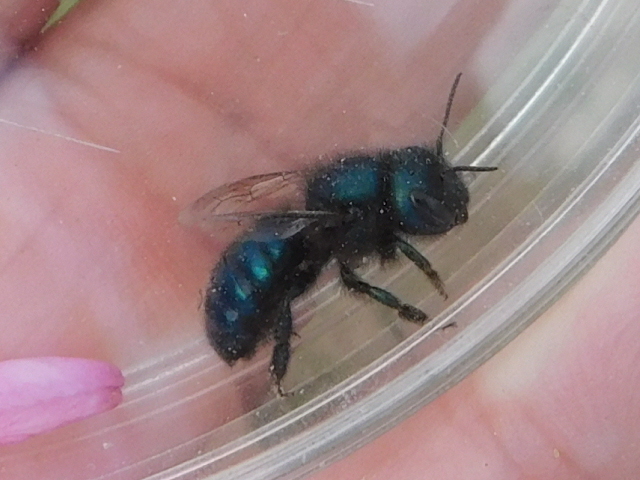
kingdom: Animalia
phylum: Arthropoda
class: Insecta
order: Hymenoptera
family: Megachilidae
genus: Osmia
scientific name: Osmia ribifloris
